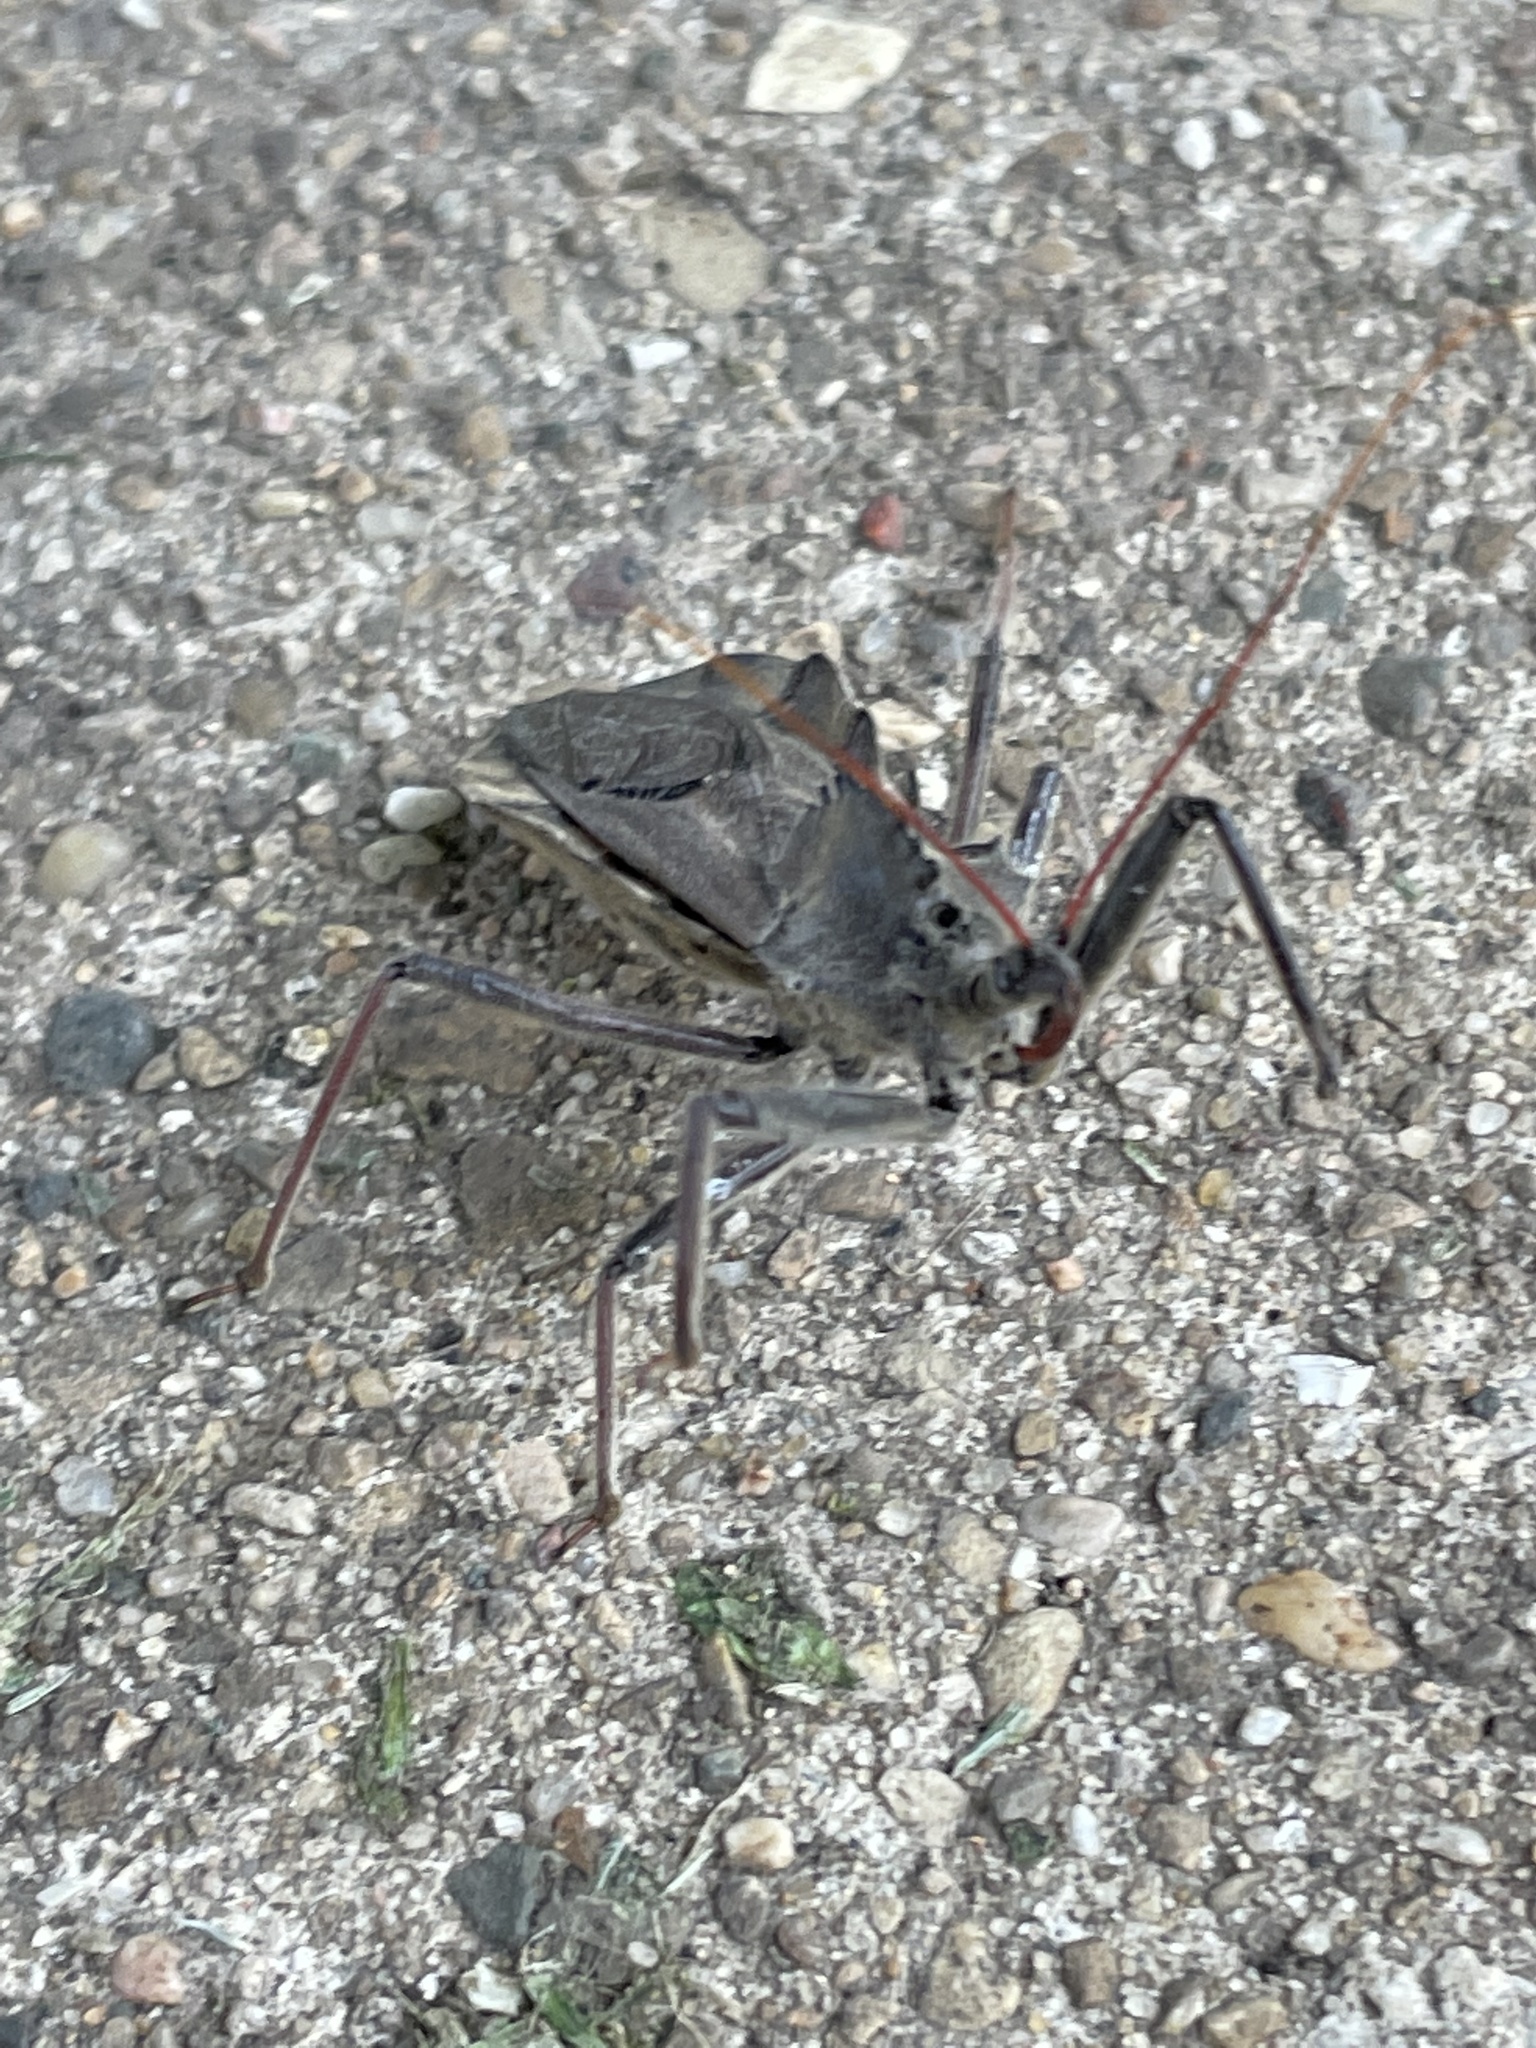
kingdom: Animalia
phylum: Arthropoda
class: Insecta
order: Hemiptera
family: Reduviidae
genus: Arilus
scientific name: Arilus cristatus
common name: North american wheel bug
